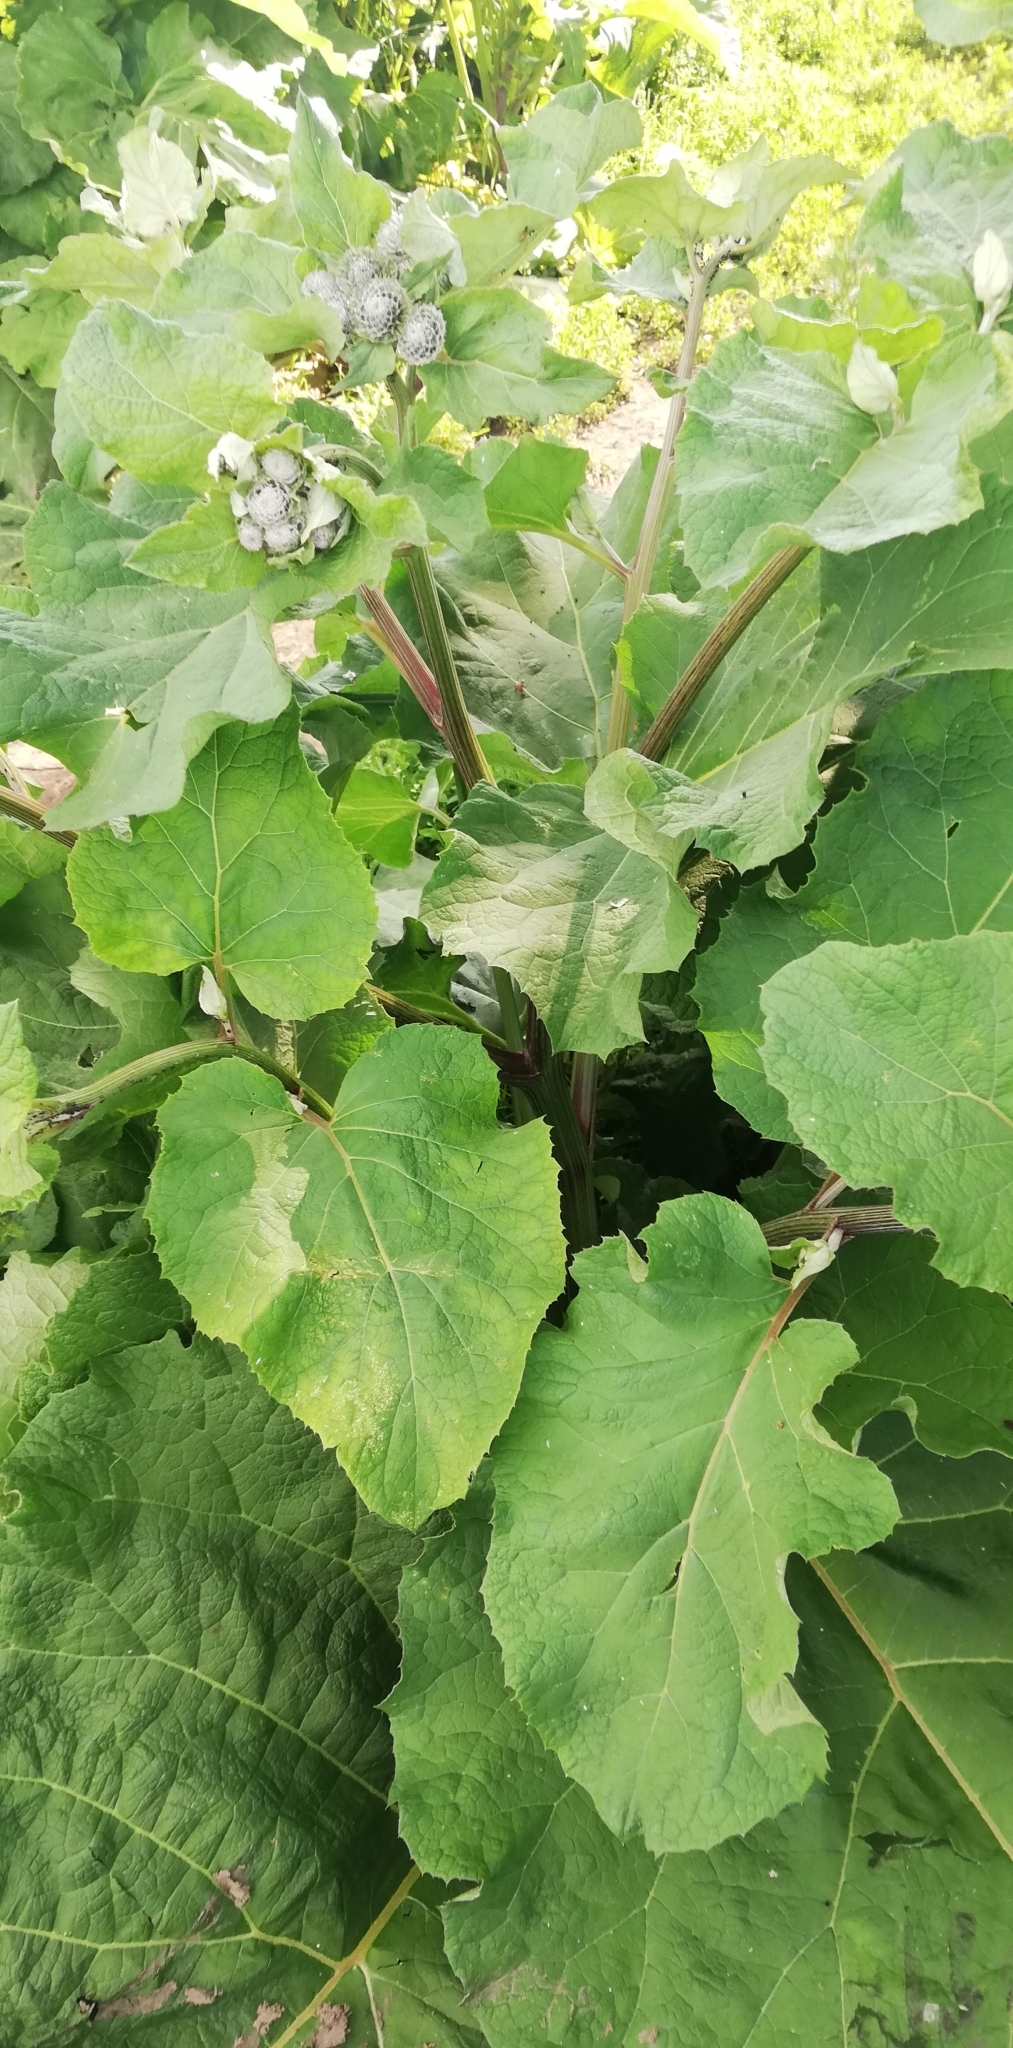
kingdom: Plantae
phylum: Tracheophyta
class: Magnoliopsida
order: Asterales
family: Asteraceae
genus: Arctium
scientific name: Arctium tomentosum
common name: Woolly burdock
